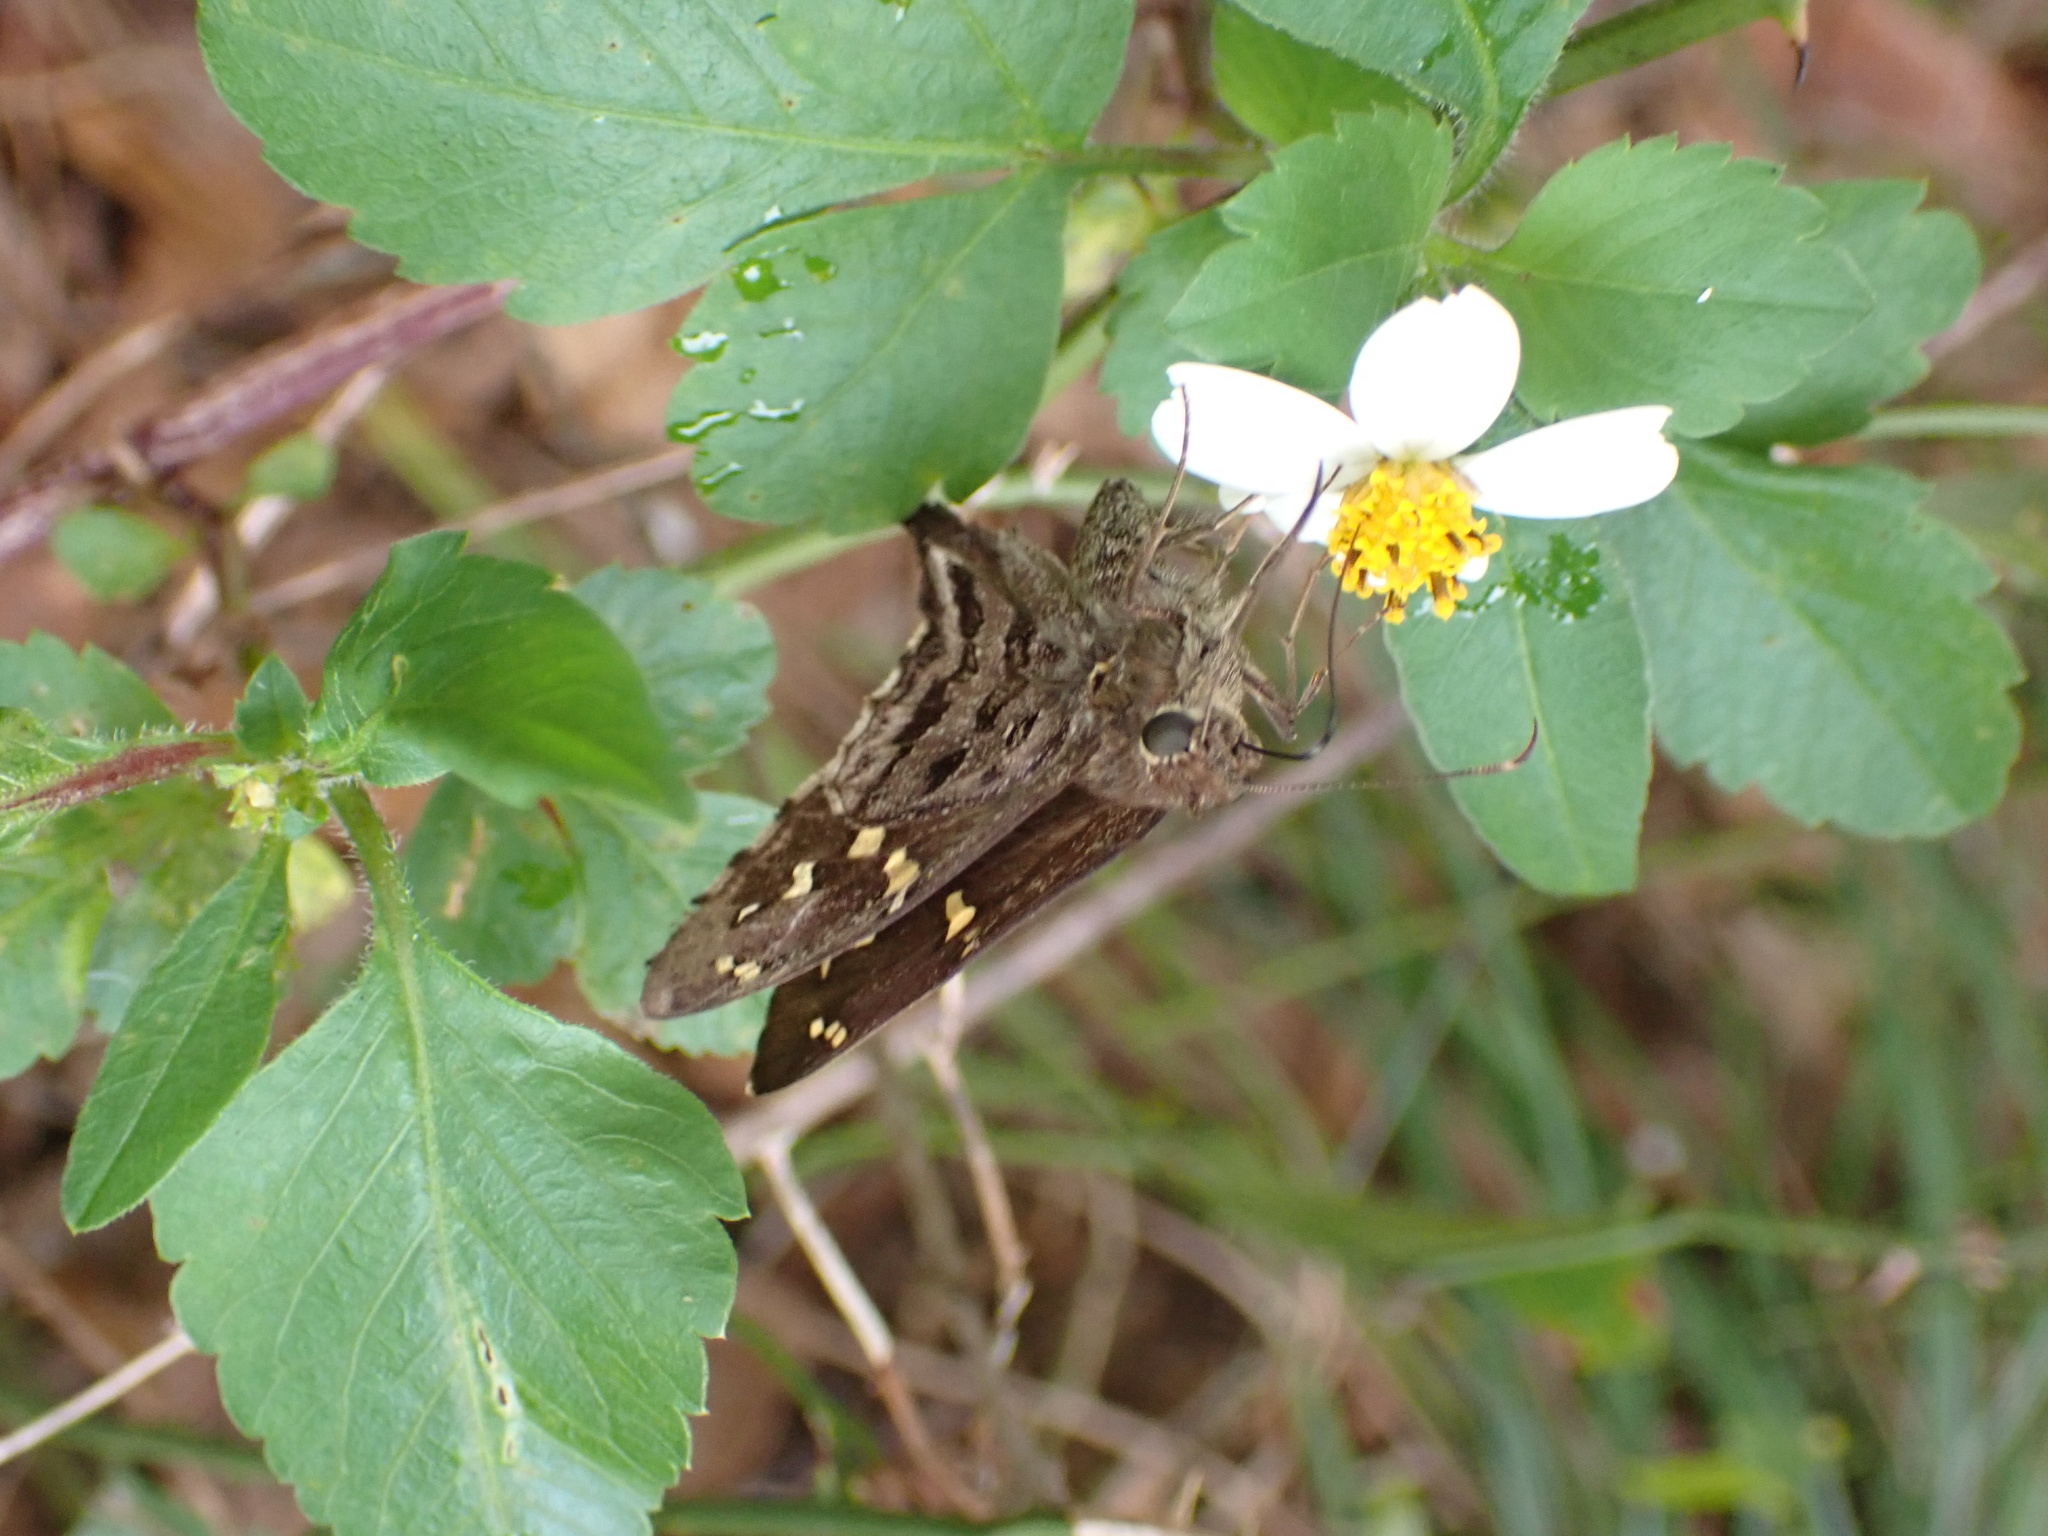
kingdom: Animalia
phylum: Arthropoda
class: Insecta
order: Lepidoptera
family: Hesperiidae
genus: Thorybes
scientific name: Thorybes
